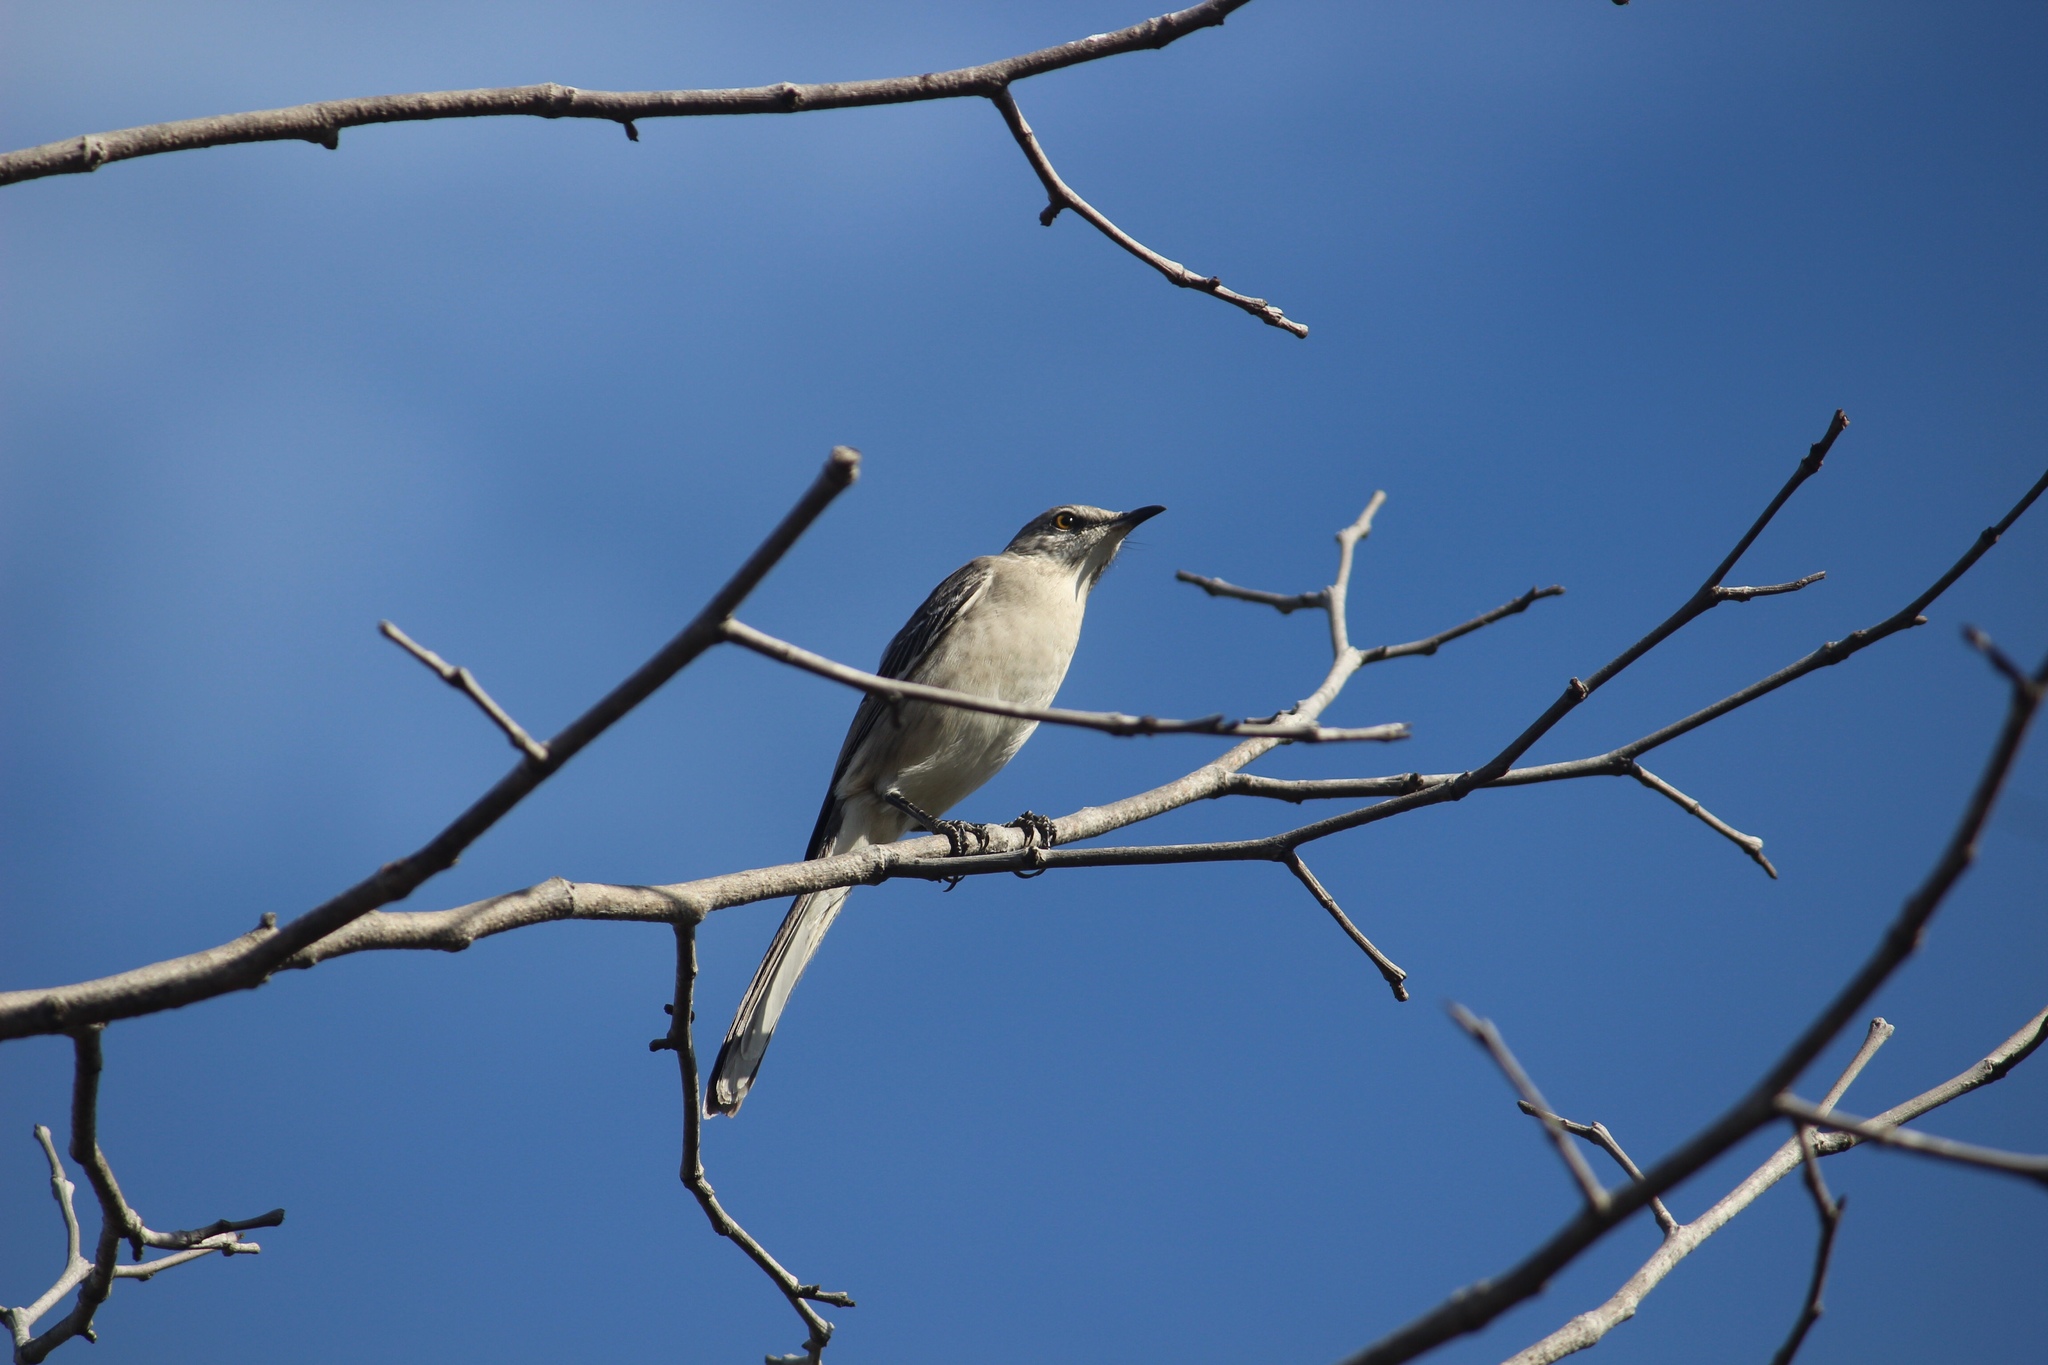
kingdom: Animalia
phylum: Chordata
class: Aves
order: Passeriformes
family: Mimidae
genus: Mimus
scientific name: Mimus polyglottos
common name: Northern mockingbird
